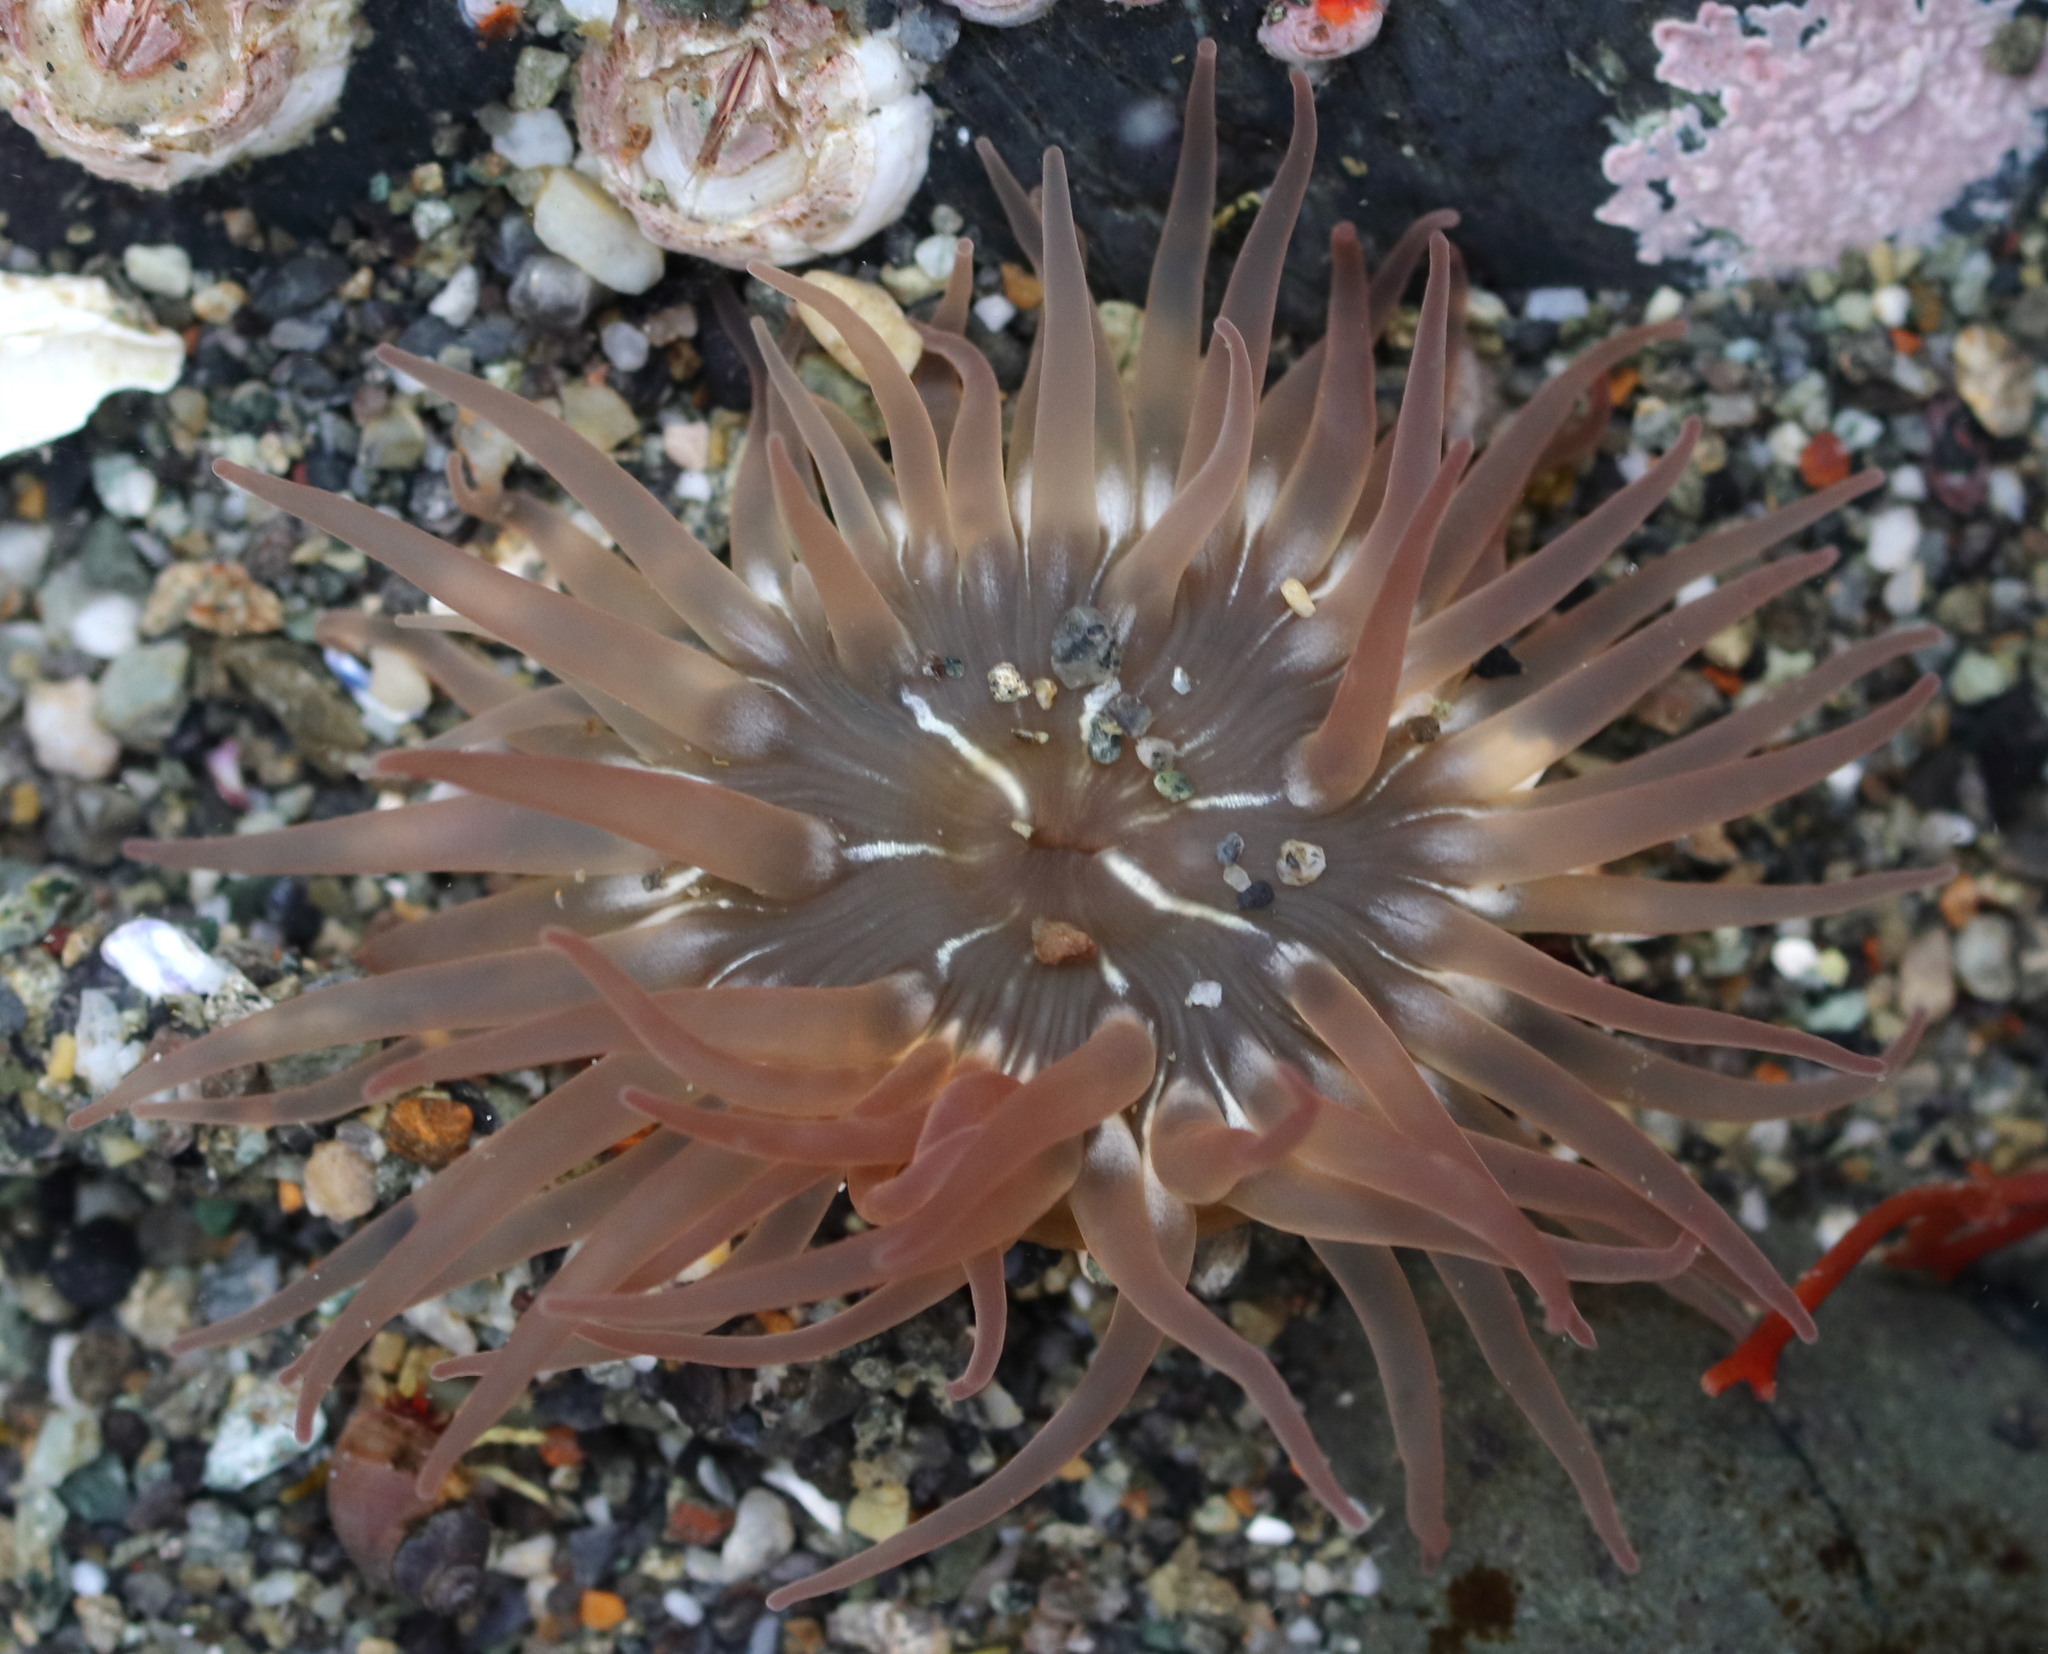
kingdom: Animalia
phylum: Cnidaria
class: Anthozoa
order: Actiniaria
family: Actiniidae
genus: Anthopleura
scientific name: Anthopleura artemisia
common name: Buried sea anemone
